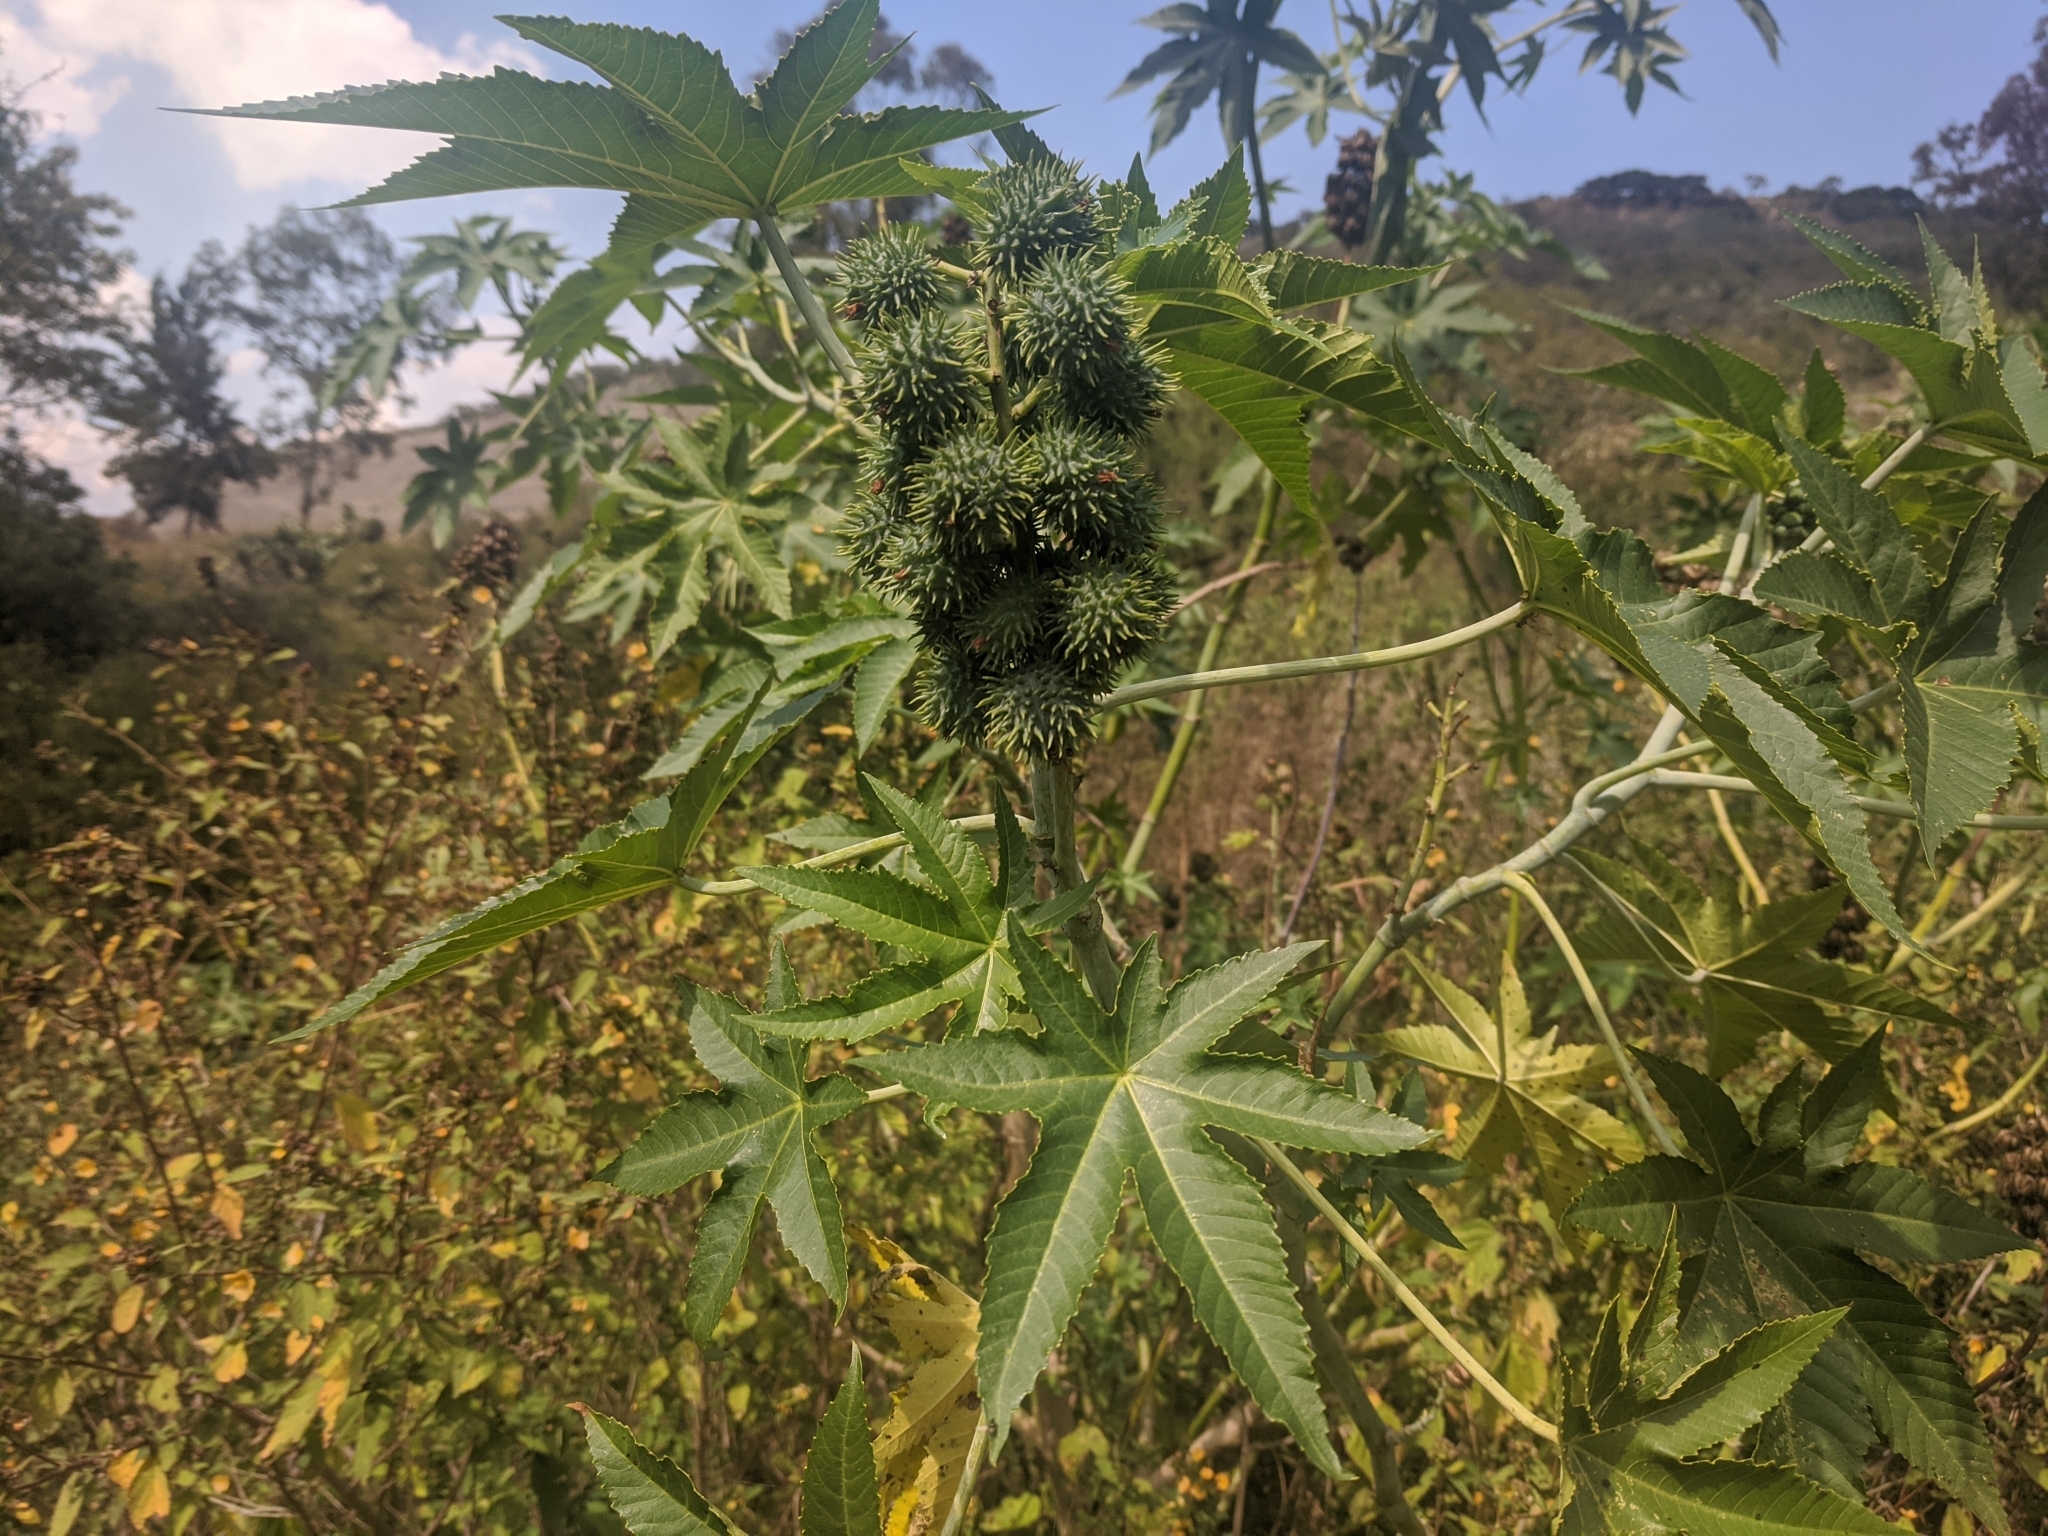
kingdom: Plantae
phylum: Tracheophyta
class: Magnoliopsida
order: Malpighiales
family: Euphorbiaceae
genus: Ricinus
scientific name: Ricinus communis
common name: Castor-oil-plant
